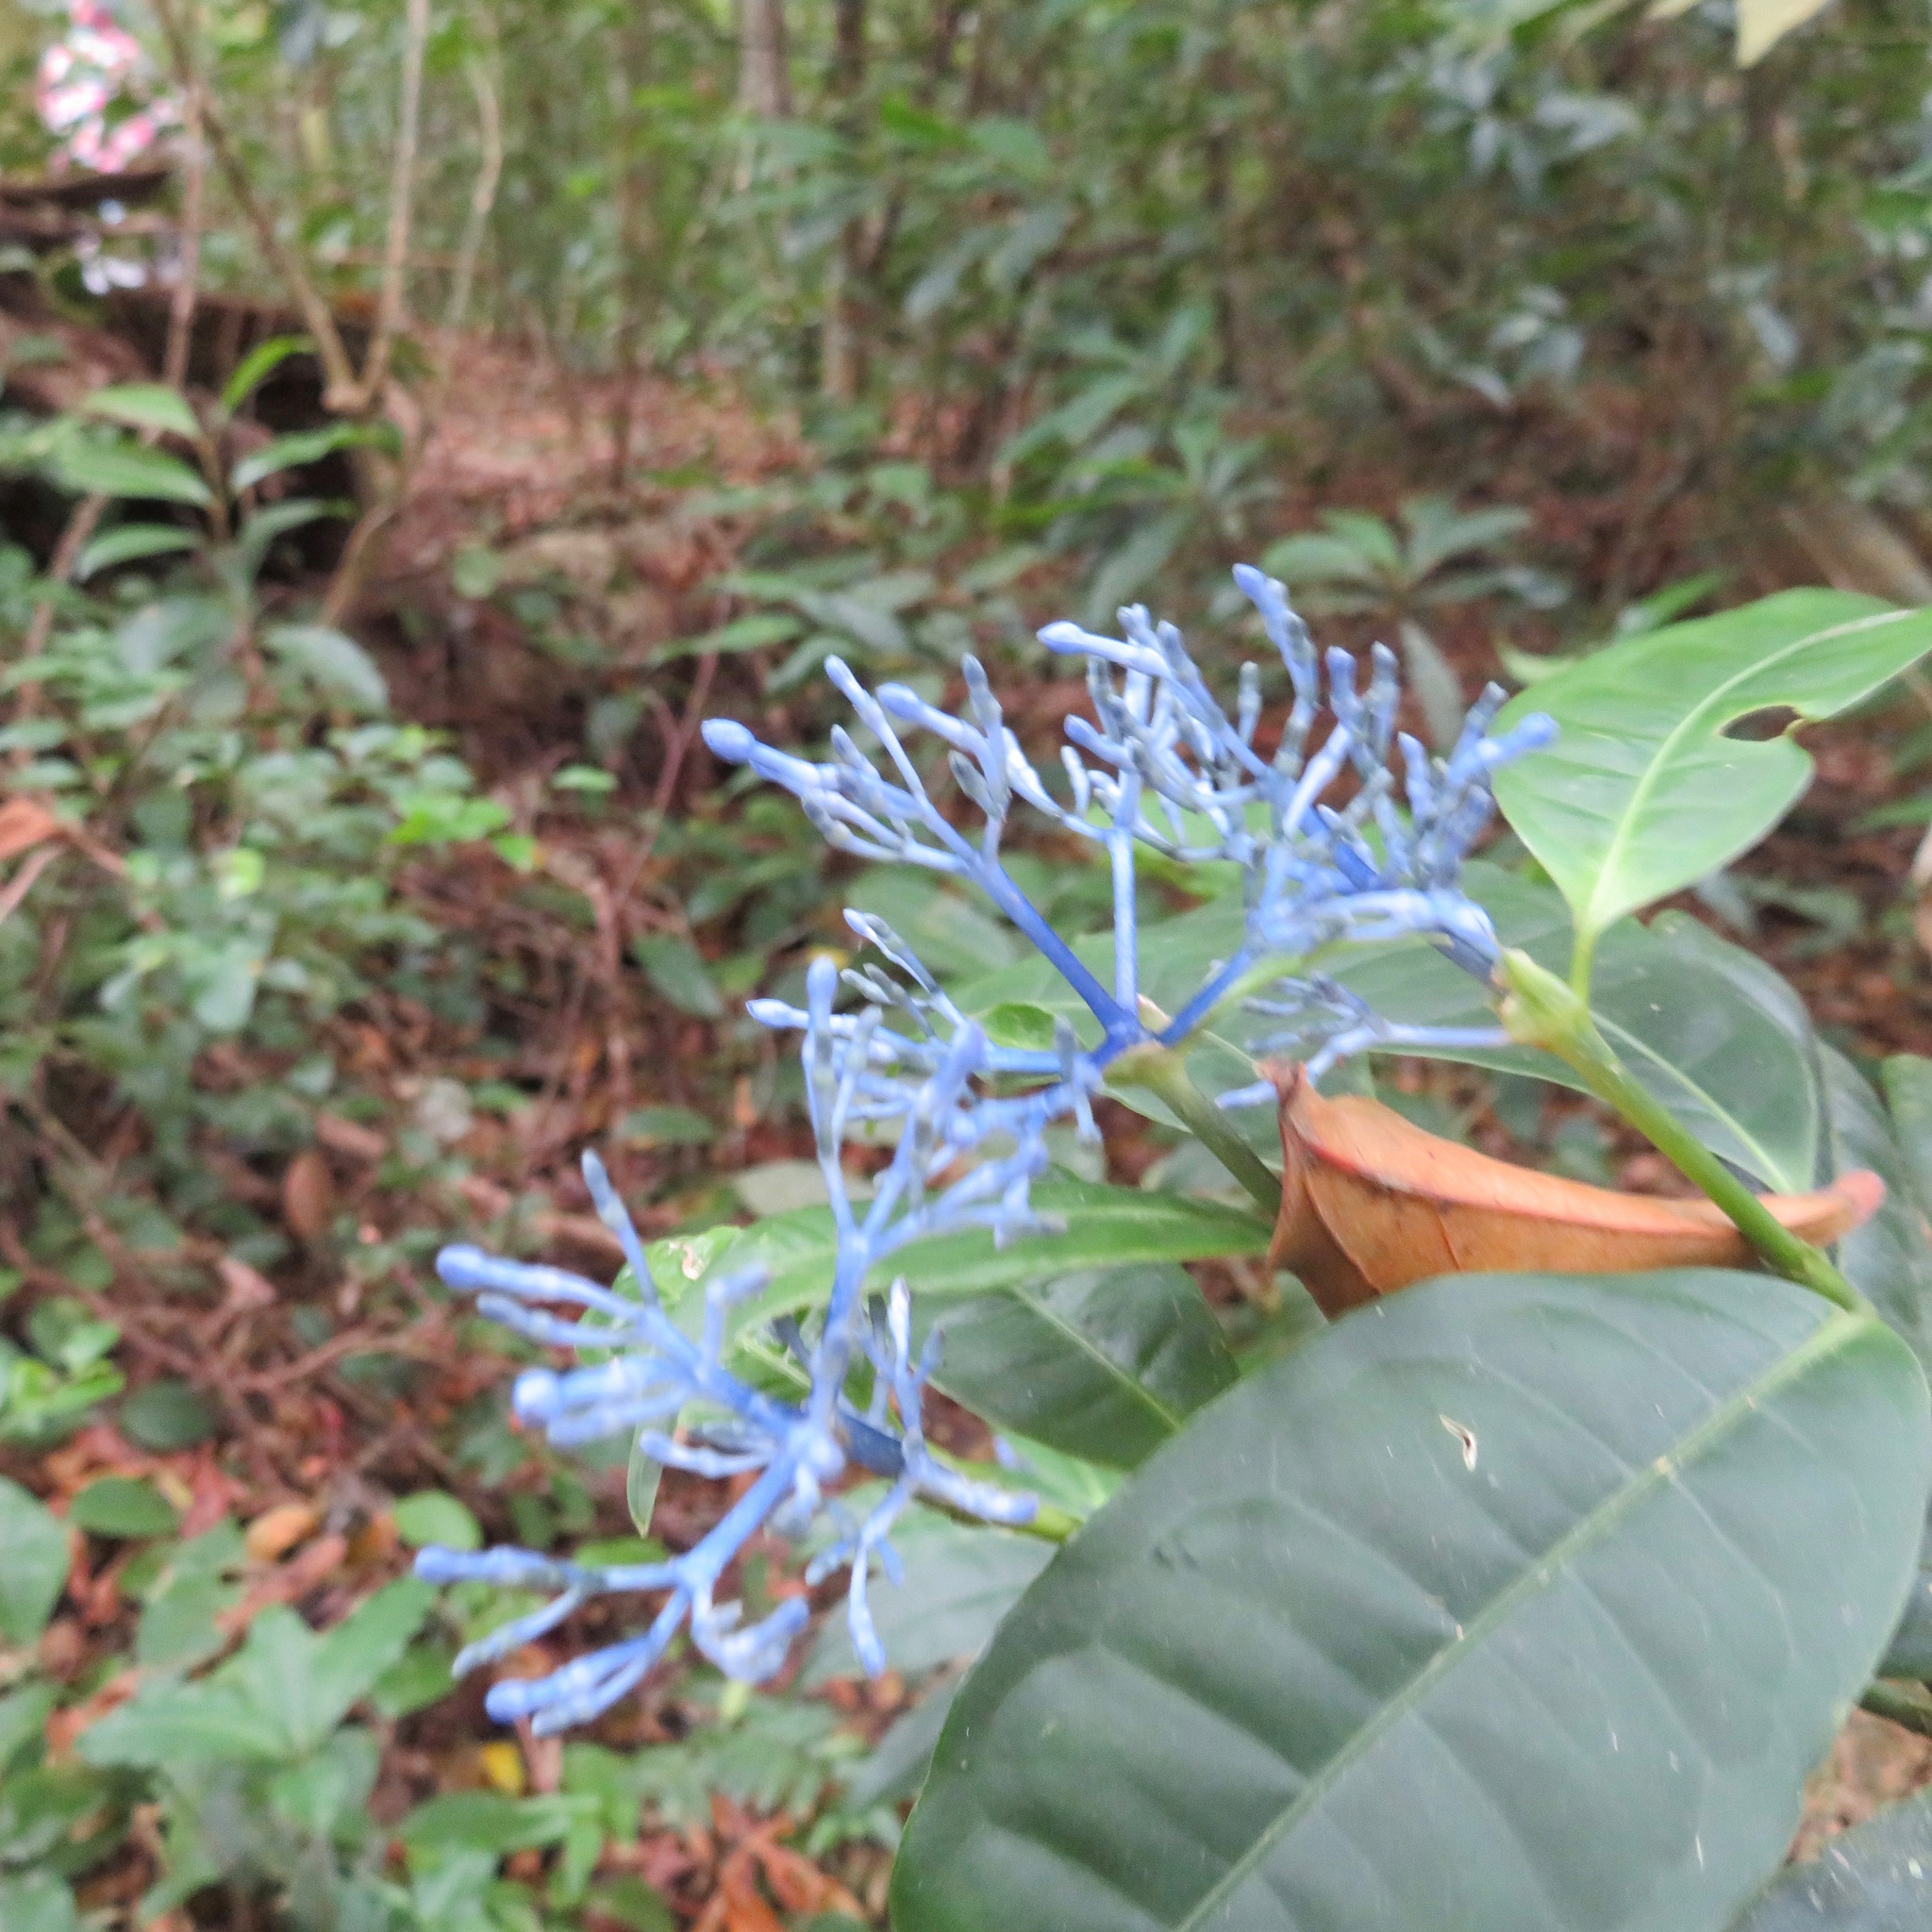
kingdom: Plantae
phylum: Tracheophyta
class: Magnoliopsida
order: Gentianales
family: Rubiaceae
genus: Faramea
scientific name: Faramea multiflora
